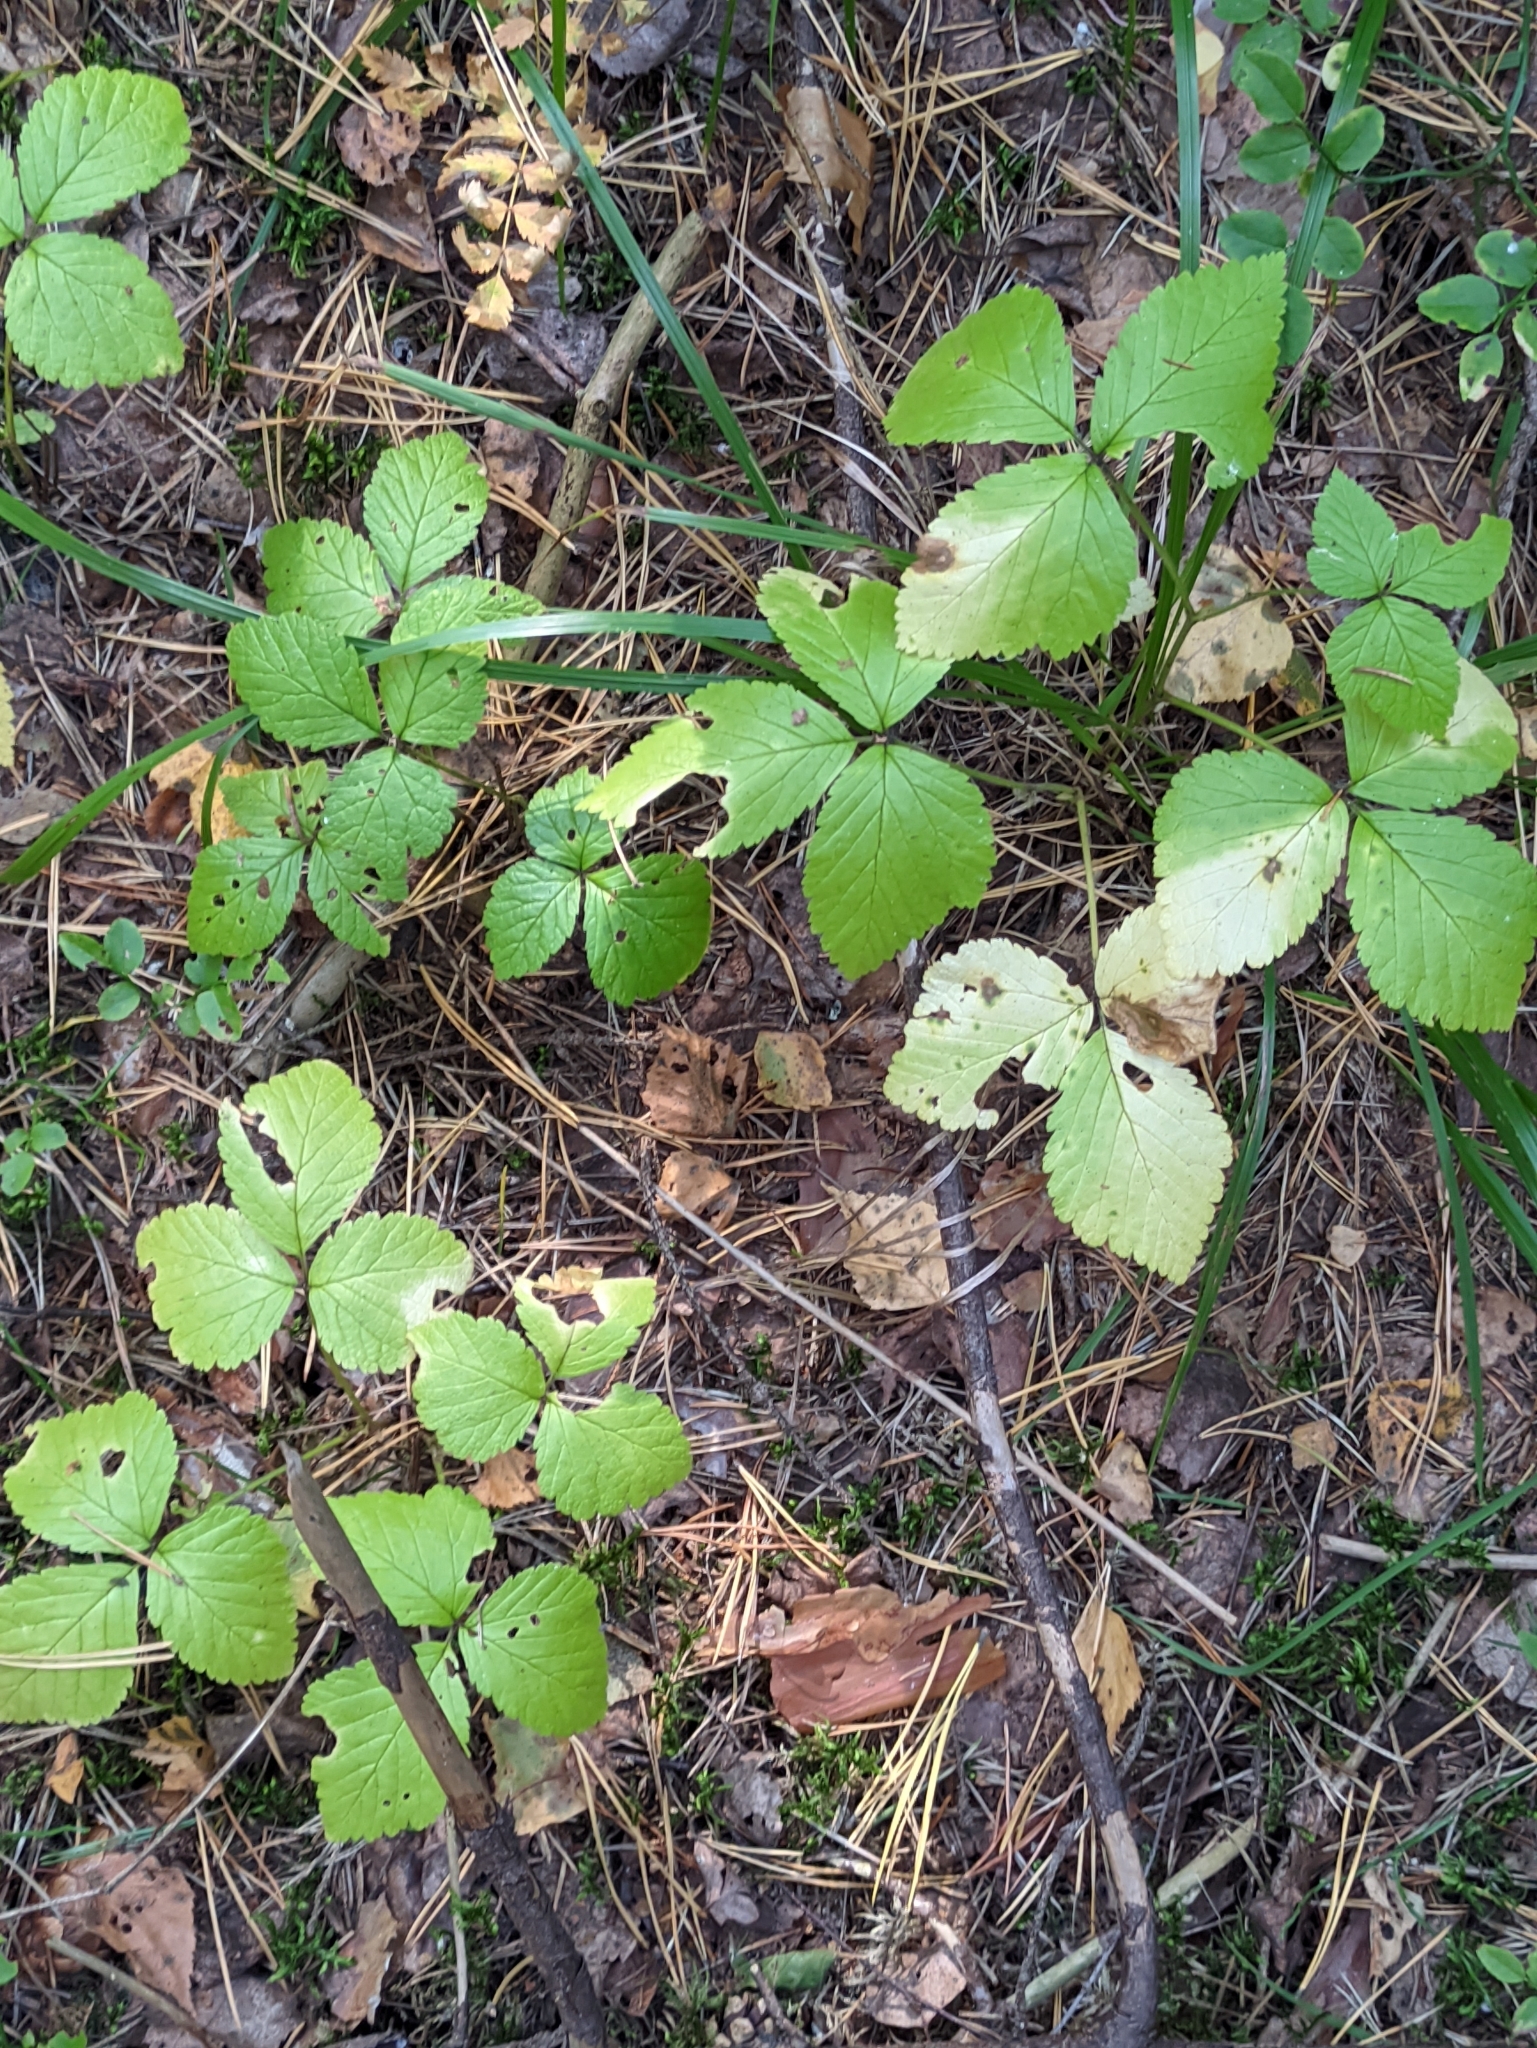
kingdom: Plantae
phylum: Tracheophyta
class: Magnoliopsida
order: Rosales
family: Rosaceae
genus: Rubus
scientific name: Rubus saxatilis
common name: Stone bramble
